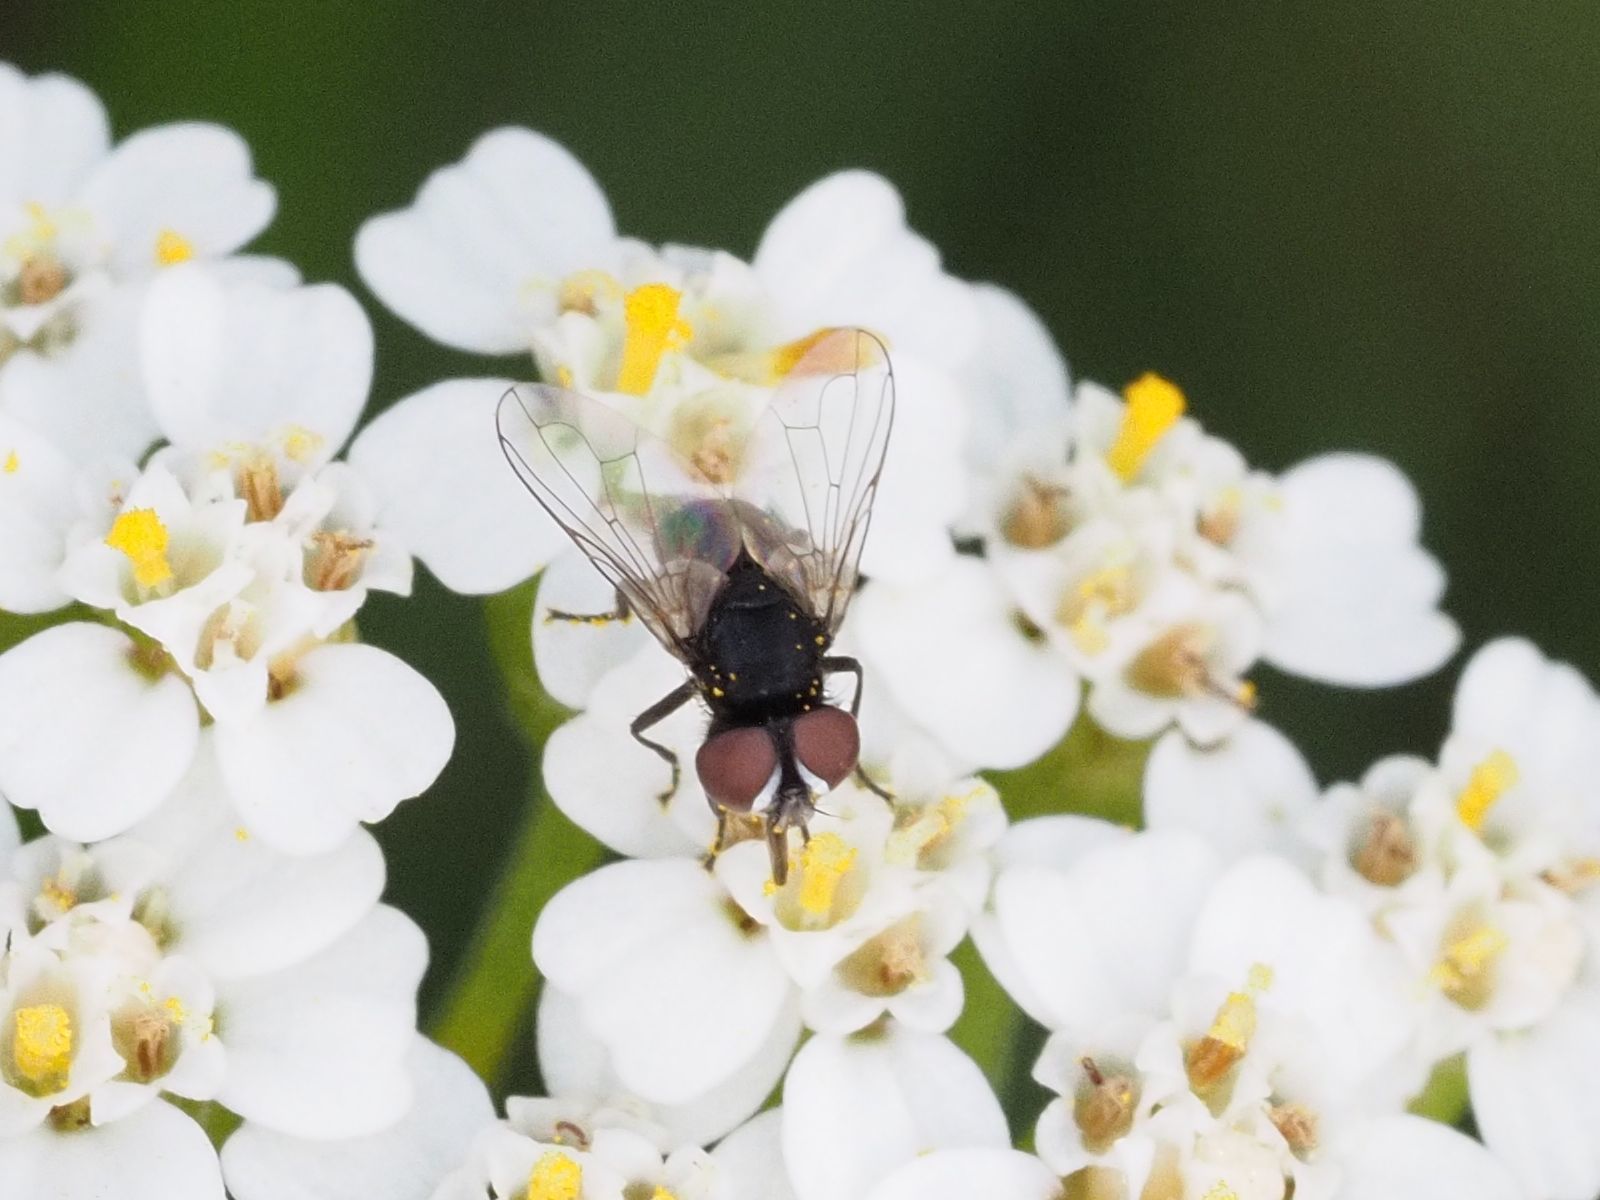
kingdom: Animalia
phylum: Arthropoda
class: Insecta
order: Diptera
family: Tachinidae
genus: Phasia
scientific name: Phasia pusilla
